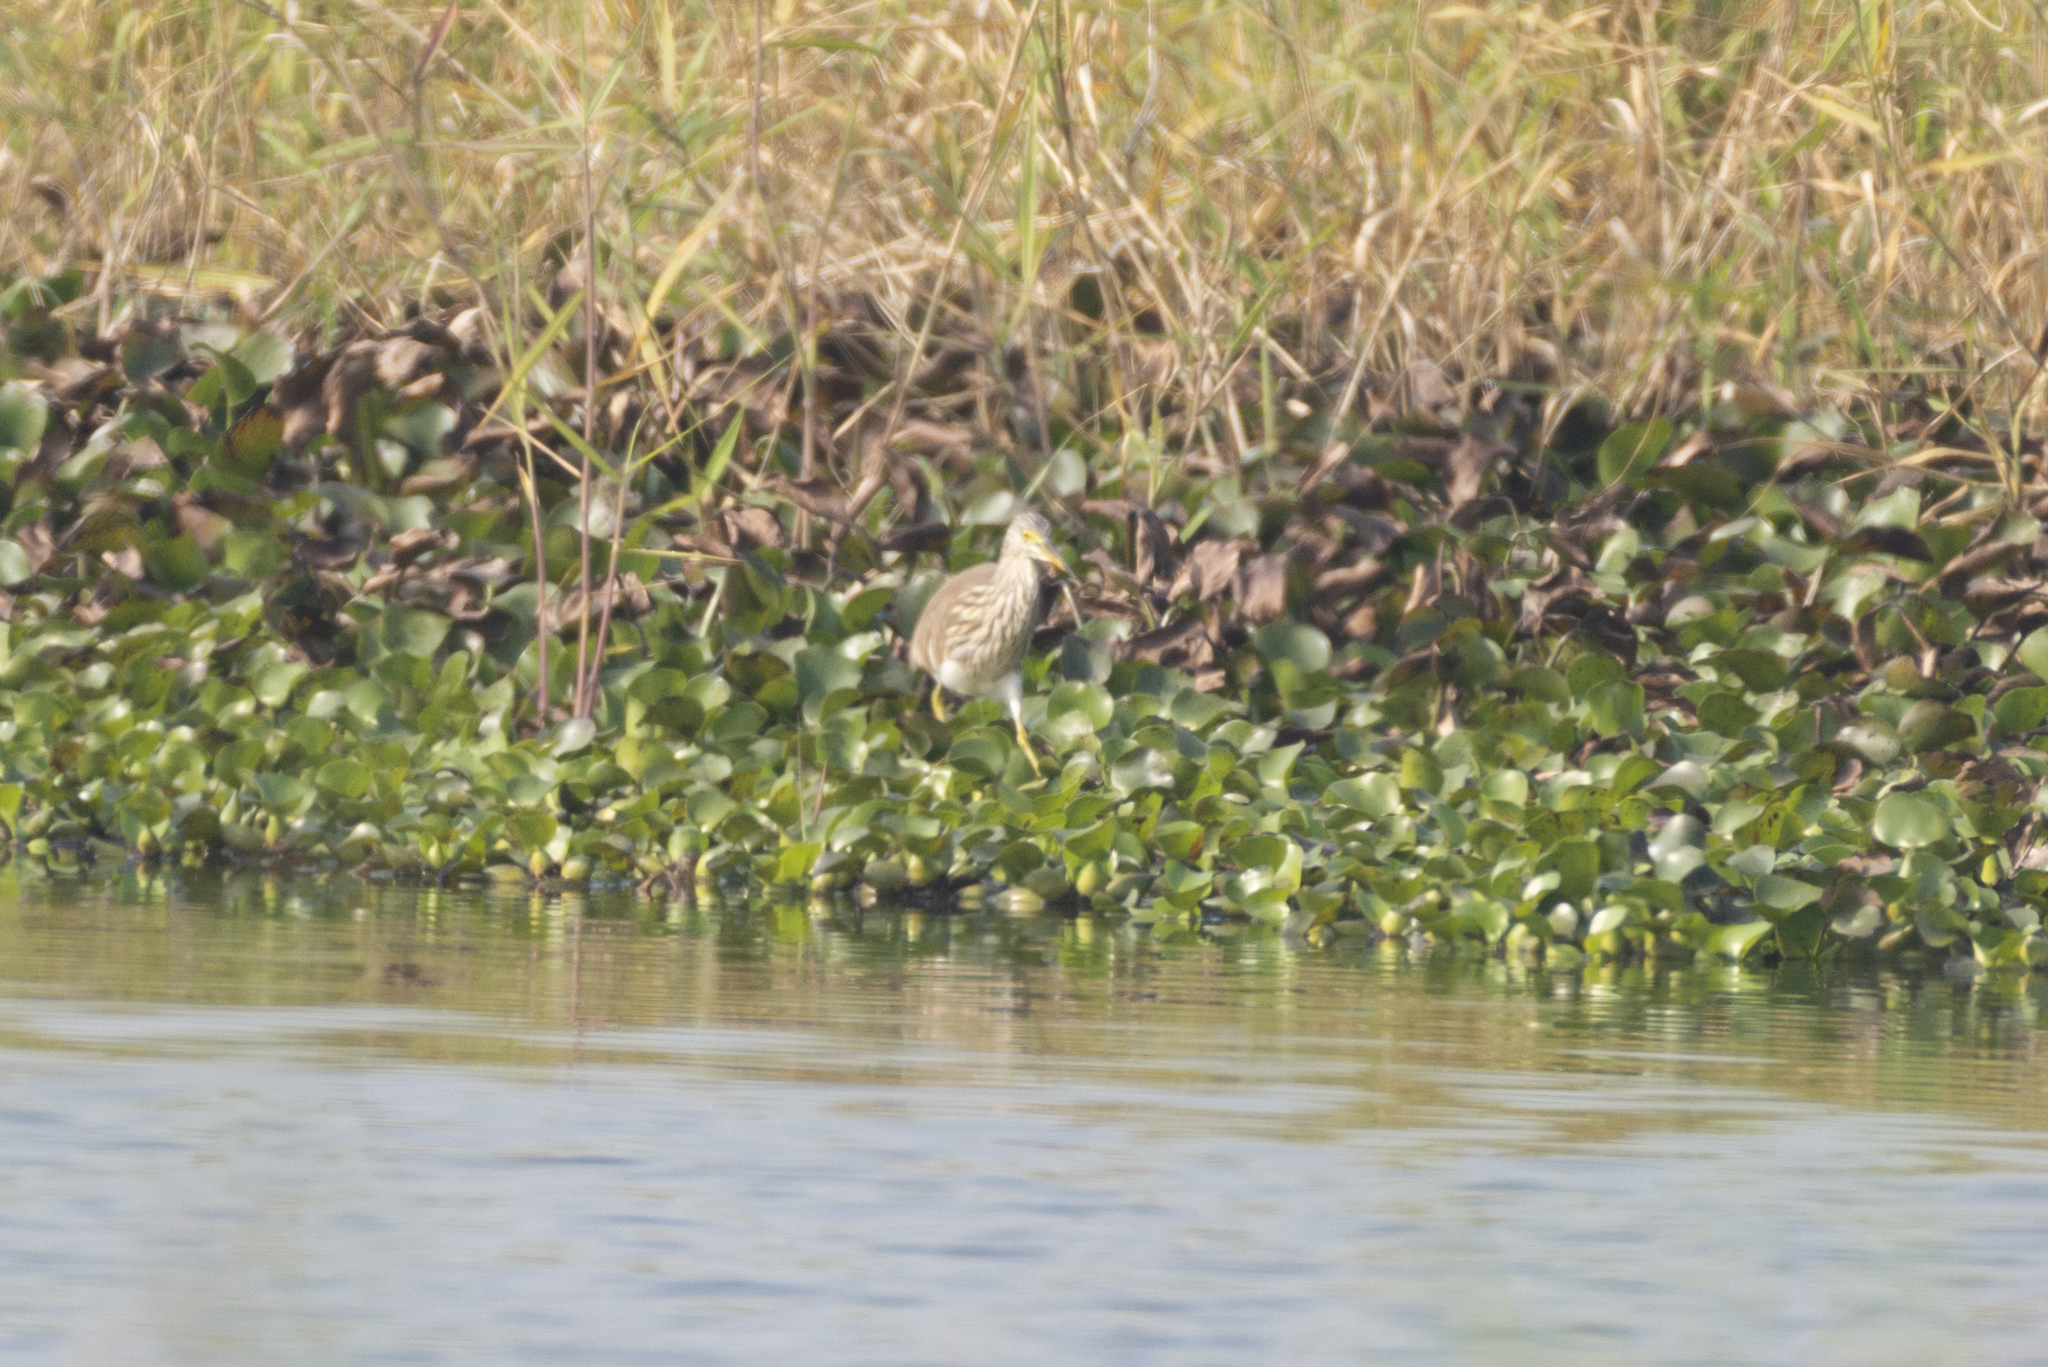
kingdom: Animalia
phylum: Chordata
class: Aves
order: Pelecaniformes
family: Ardeidae
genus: Ardeola
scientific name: Ardeola bacchus
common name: Chinese pond heron
